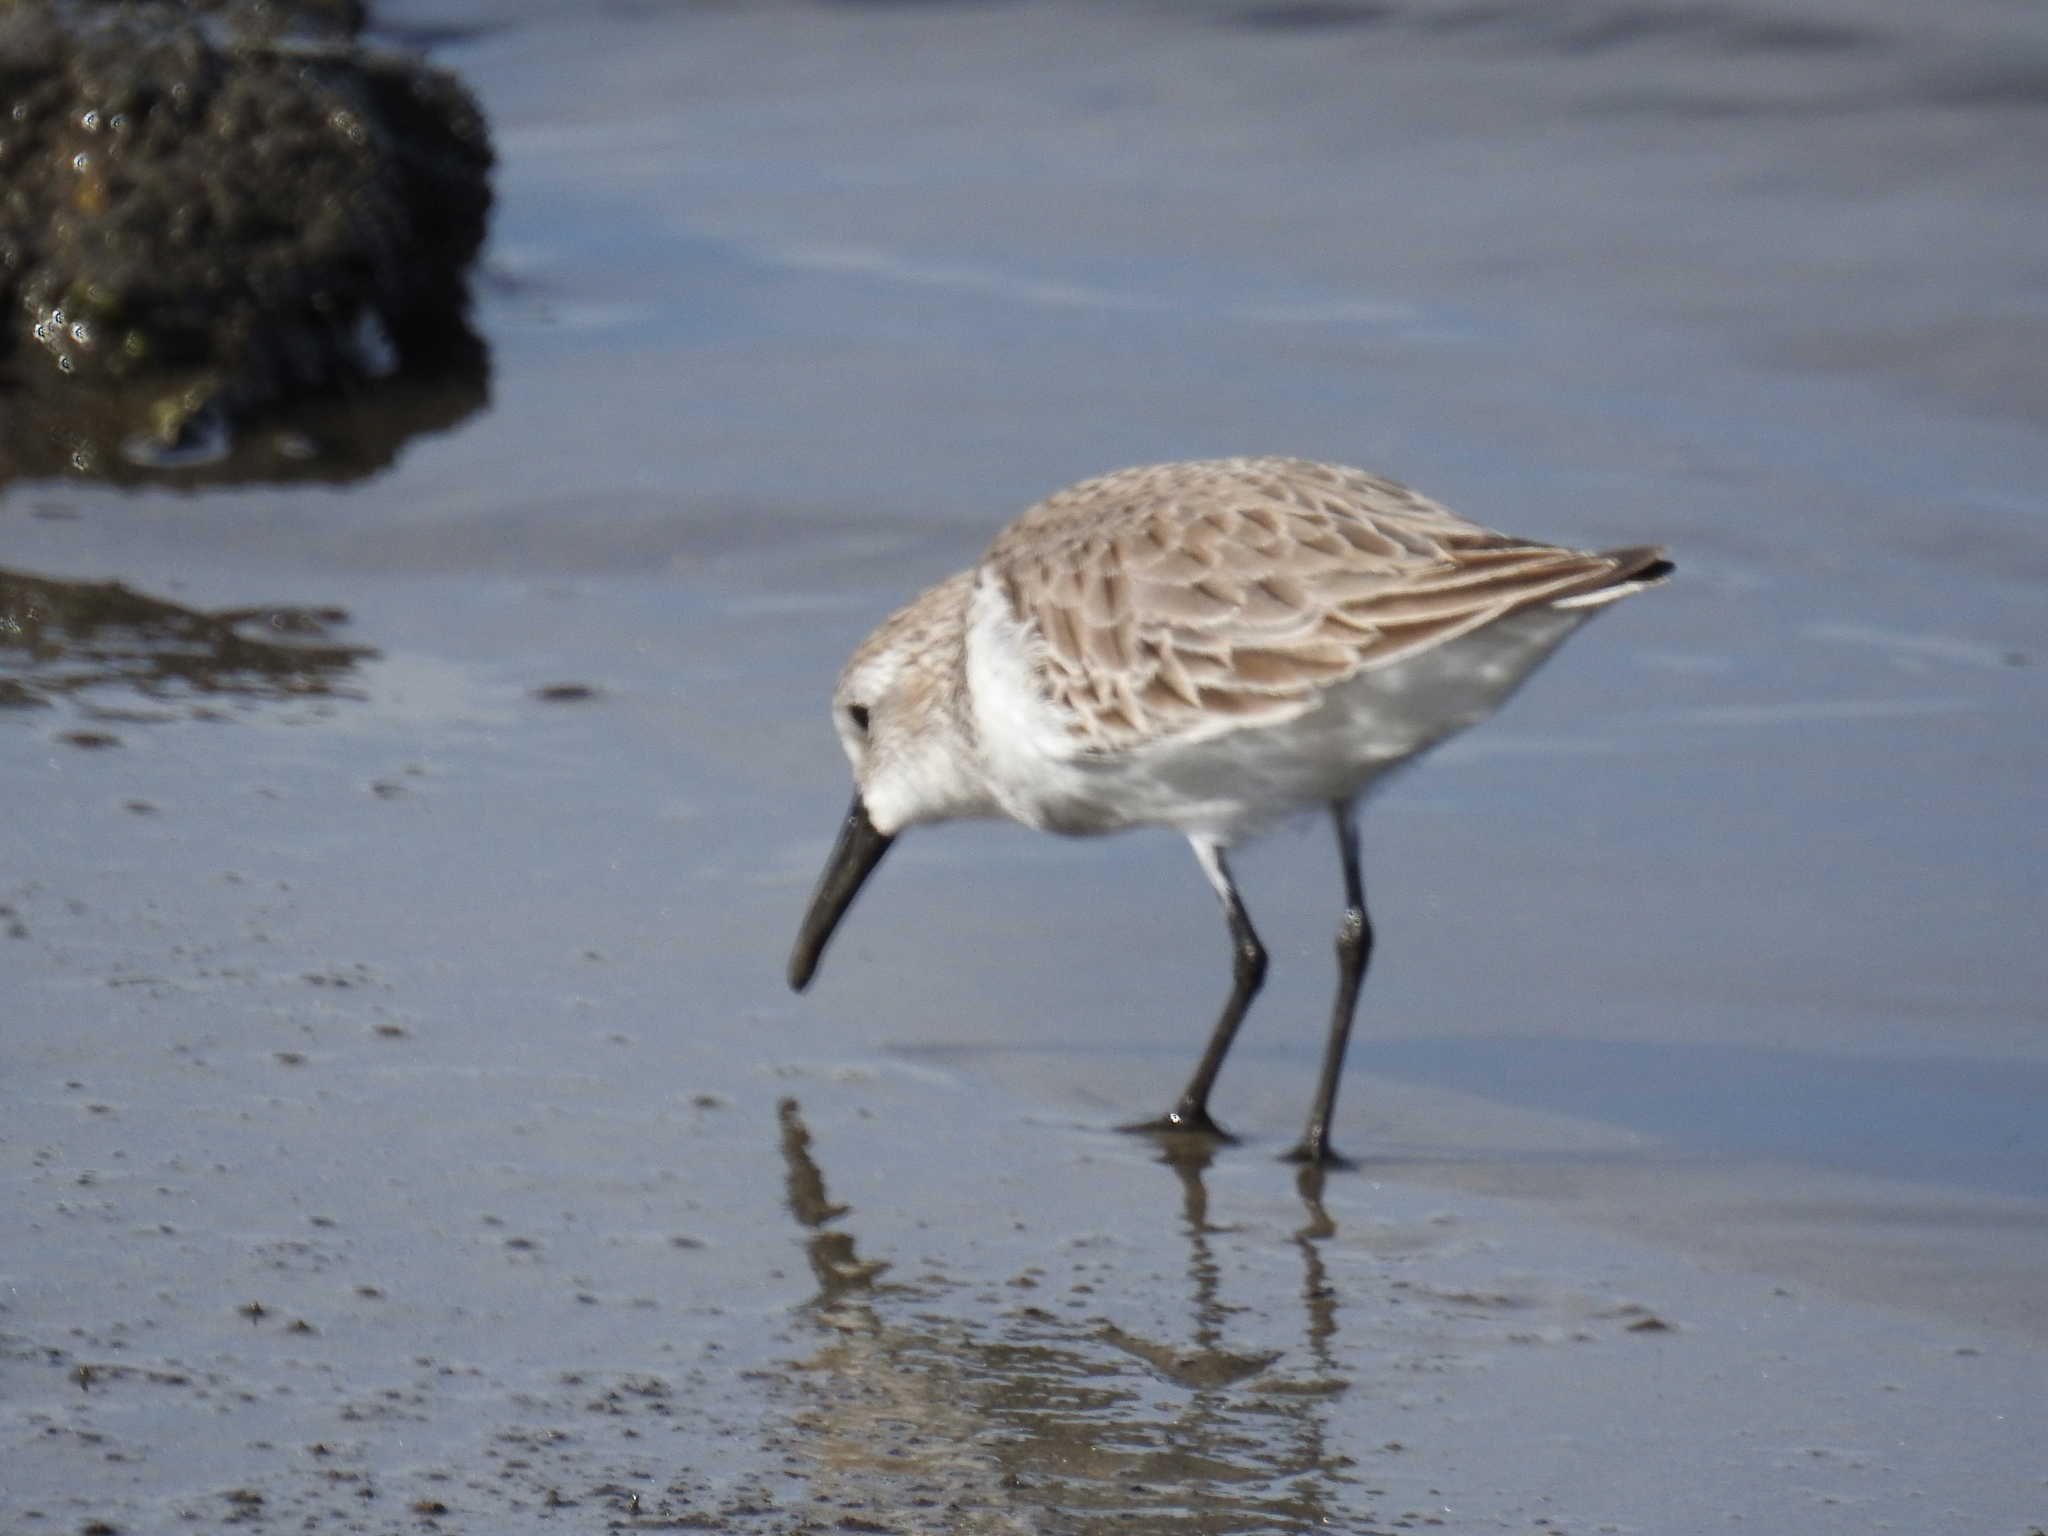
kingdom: Animalia
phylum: Chordata
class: Aves
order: Charadriiformes
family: Scolopacidae
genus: Calidris
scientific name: Calidris mauri
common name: Western sandpiper
